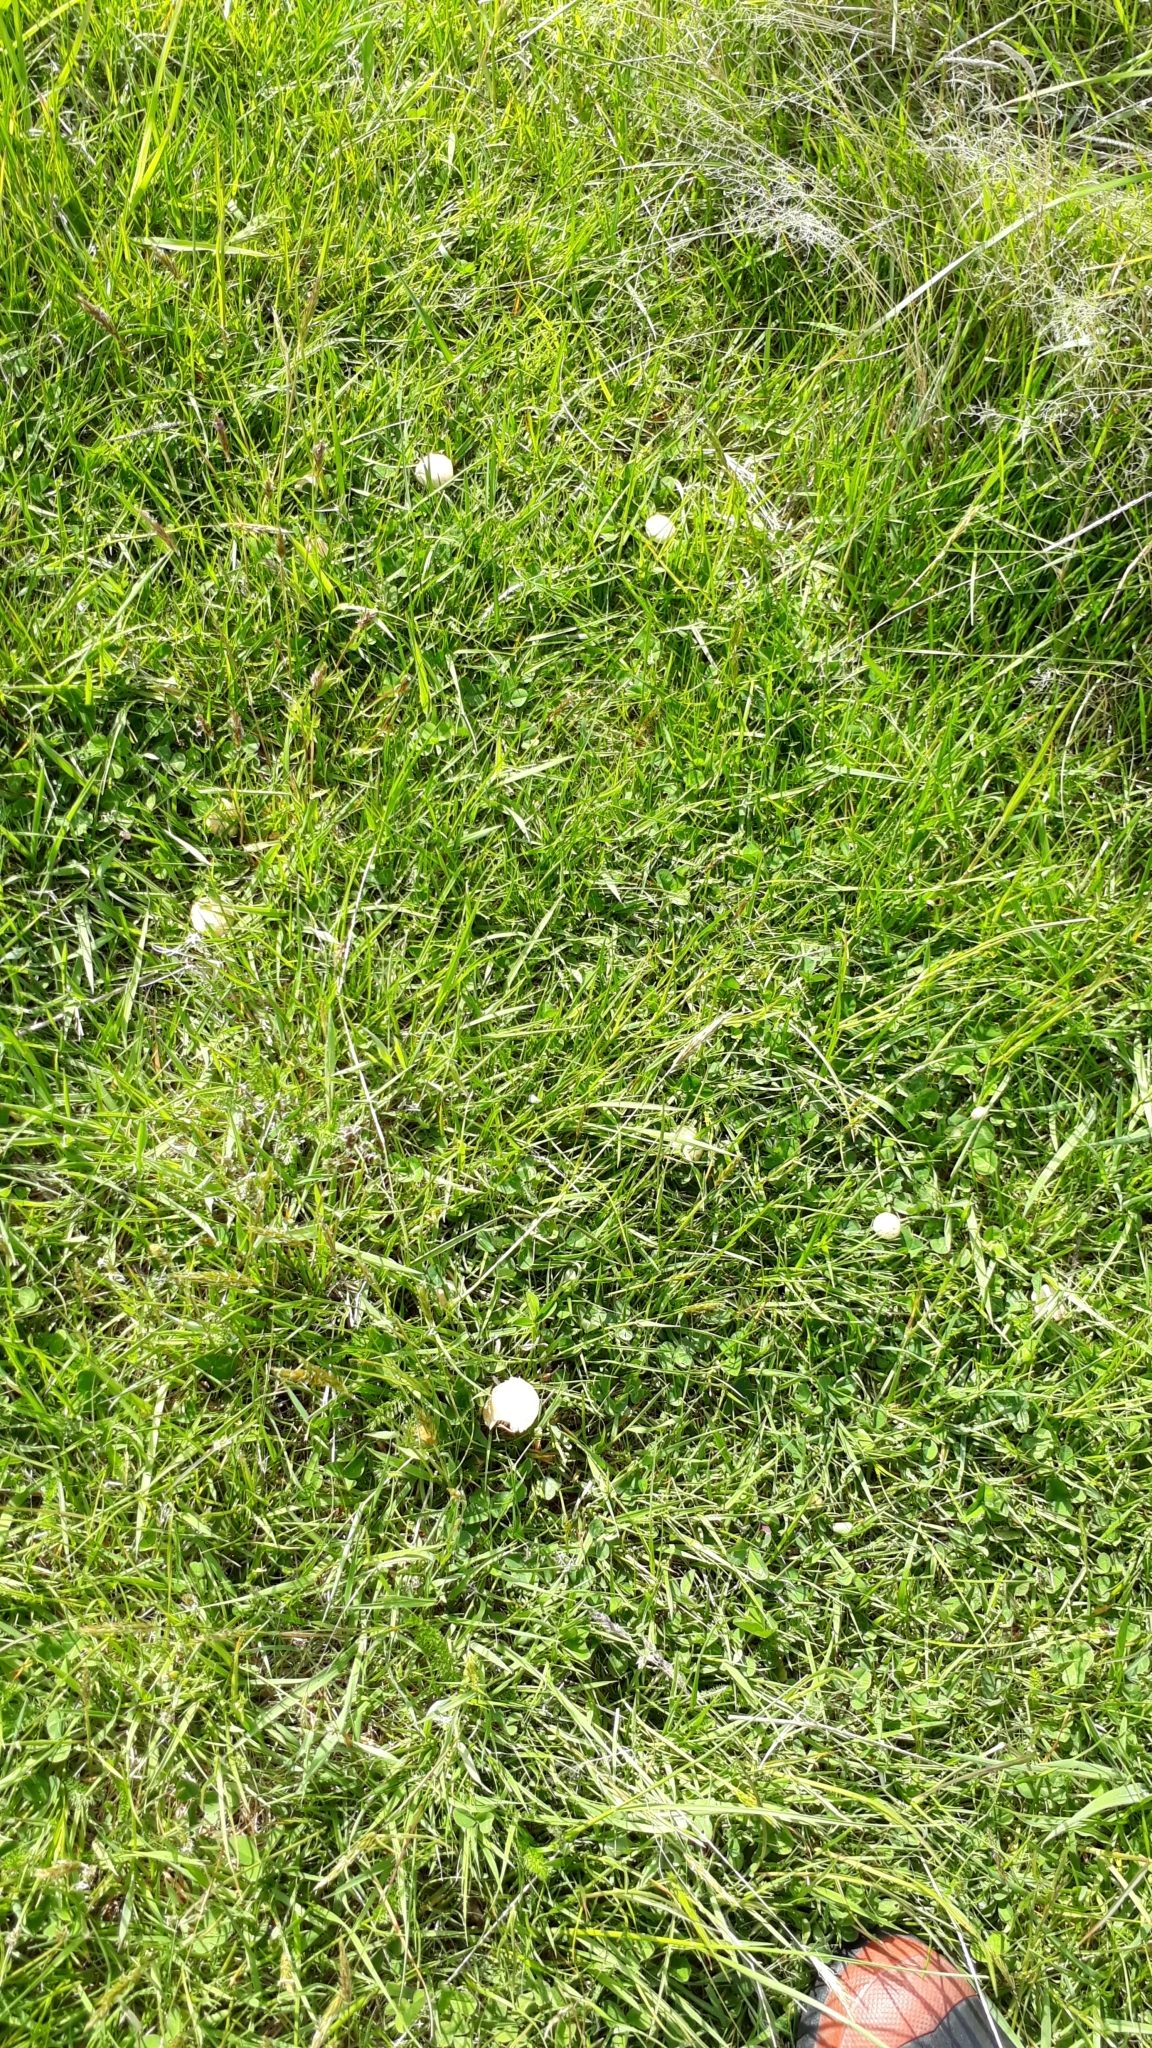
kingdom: Fungi
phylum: Basidiomycota
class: Agaricomycetes
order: Agaricales
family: Strophariaceae
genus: Agrocybe
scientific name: Agrocybe pediades
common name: Common fieldcap
